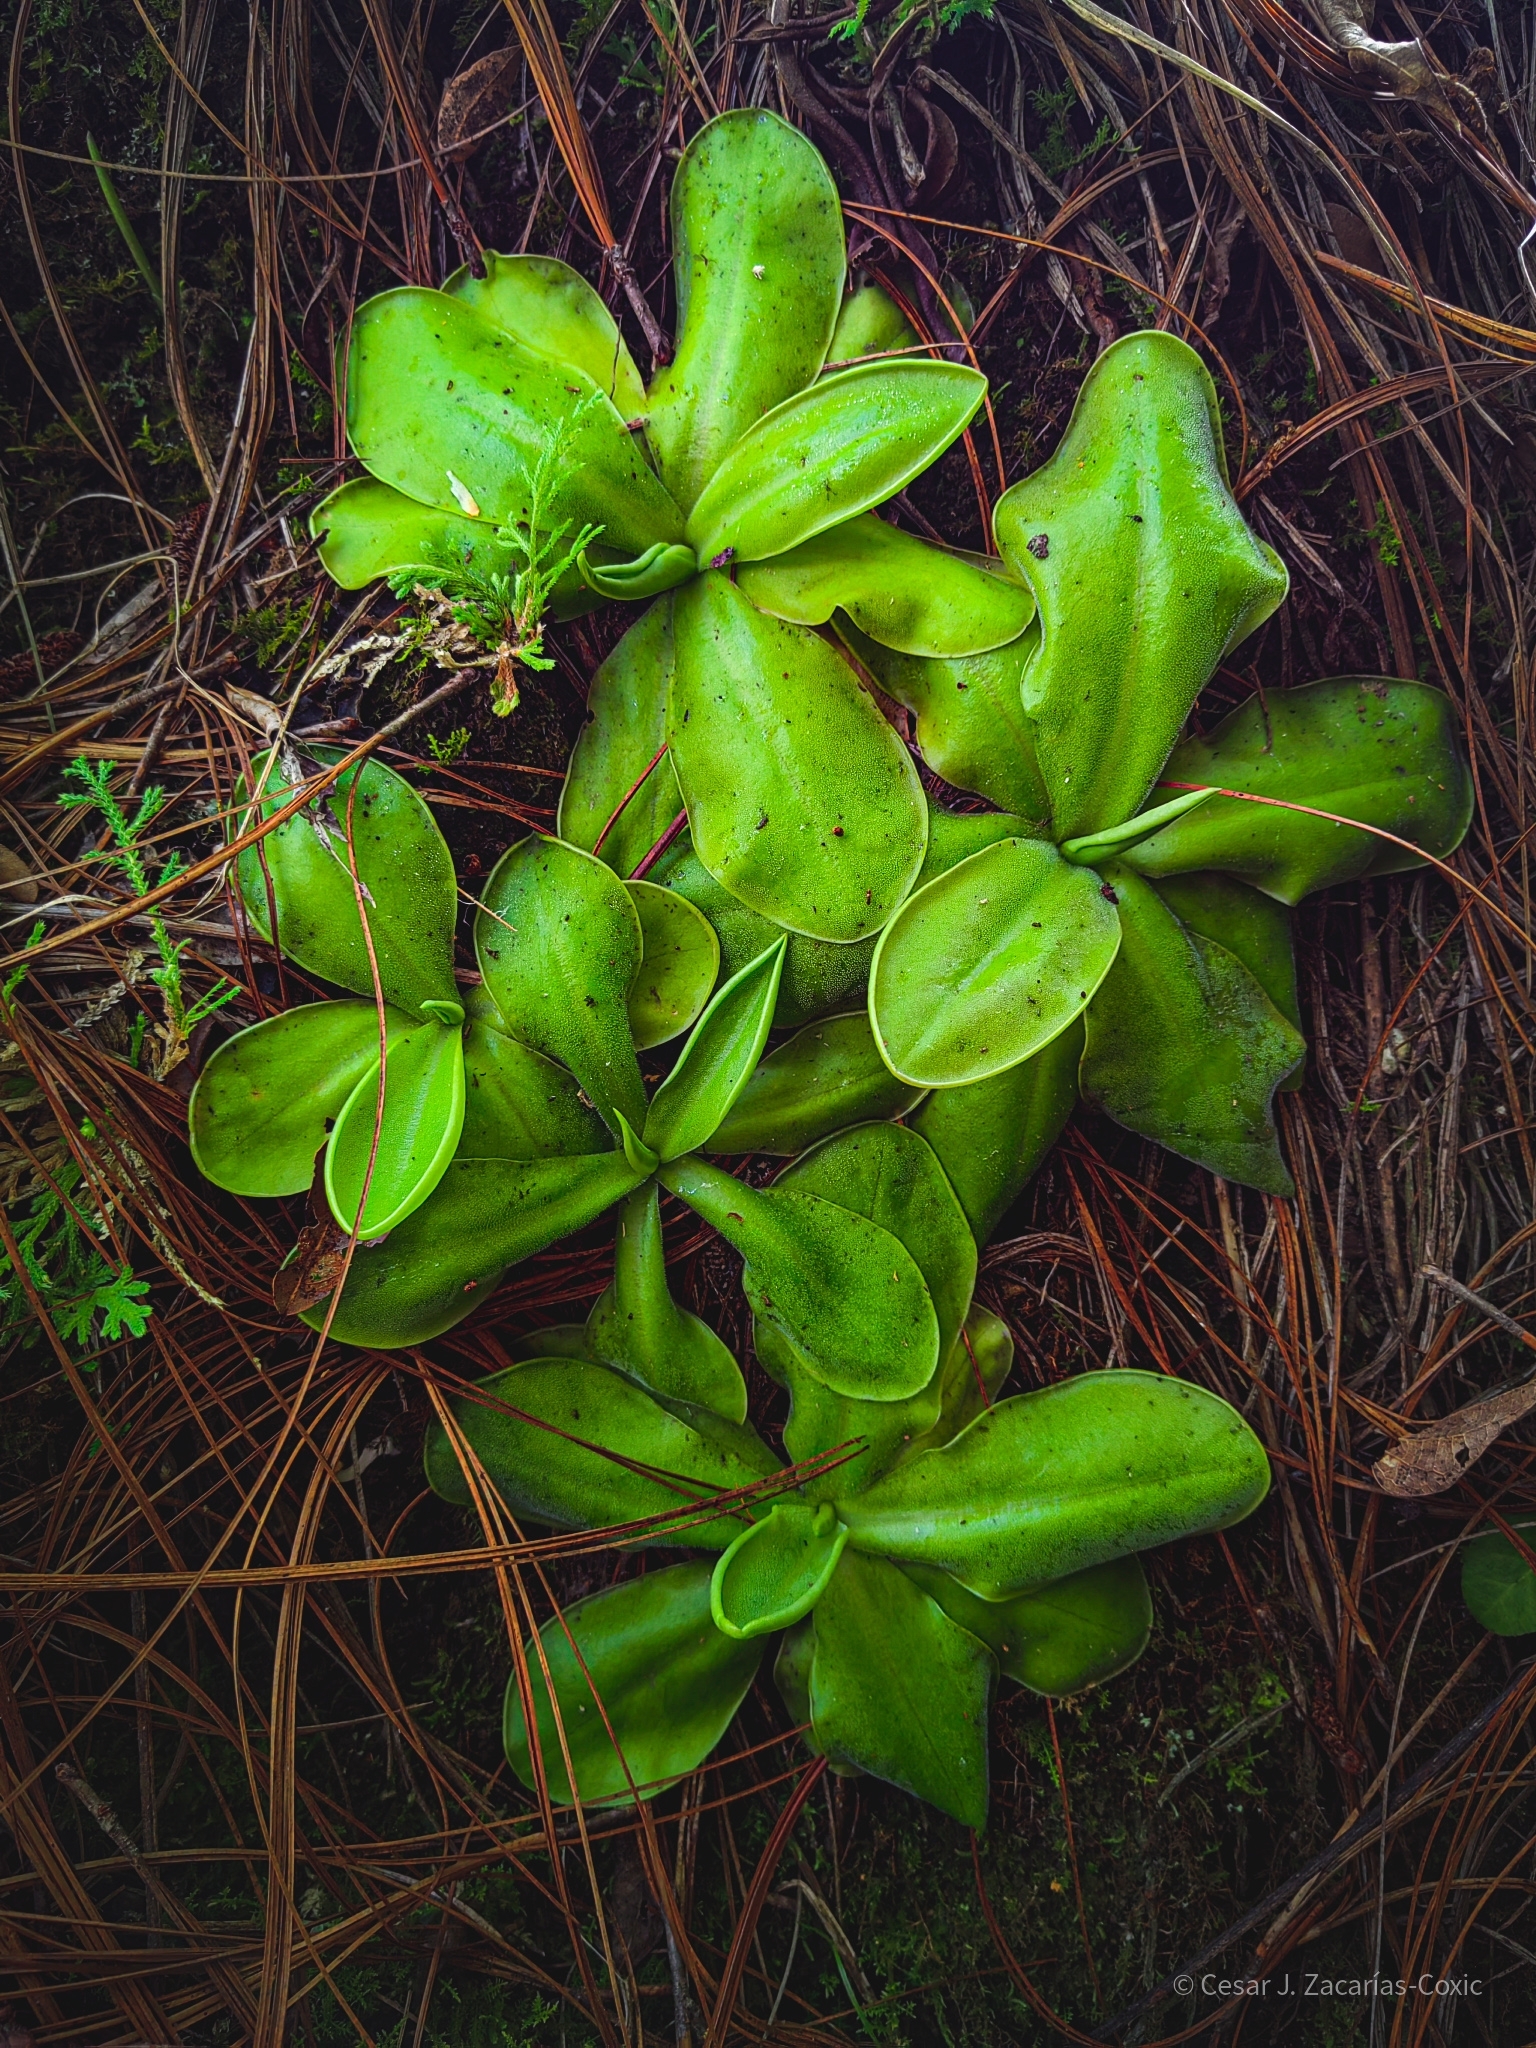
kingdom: Plantae
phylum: Tracheophyta
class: Magnoliopsida
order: Lamiales
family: Lentibulariaceae
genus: Pinguicula
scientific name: Pinguicula moranensis
